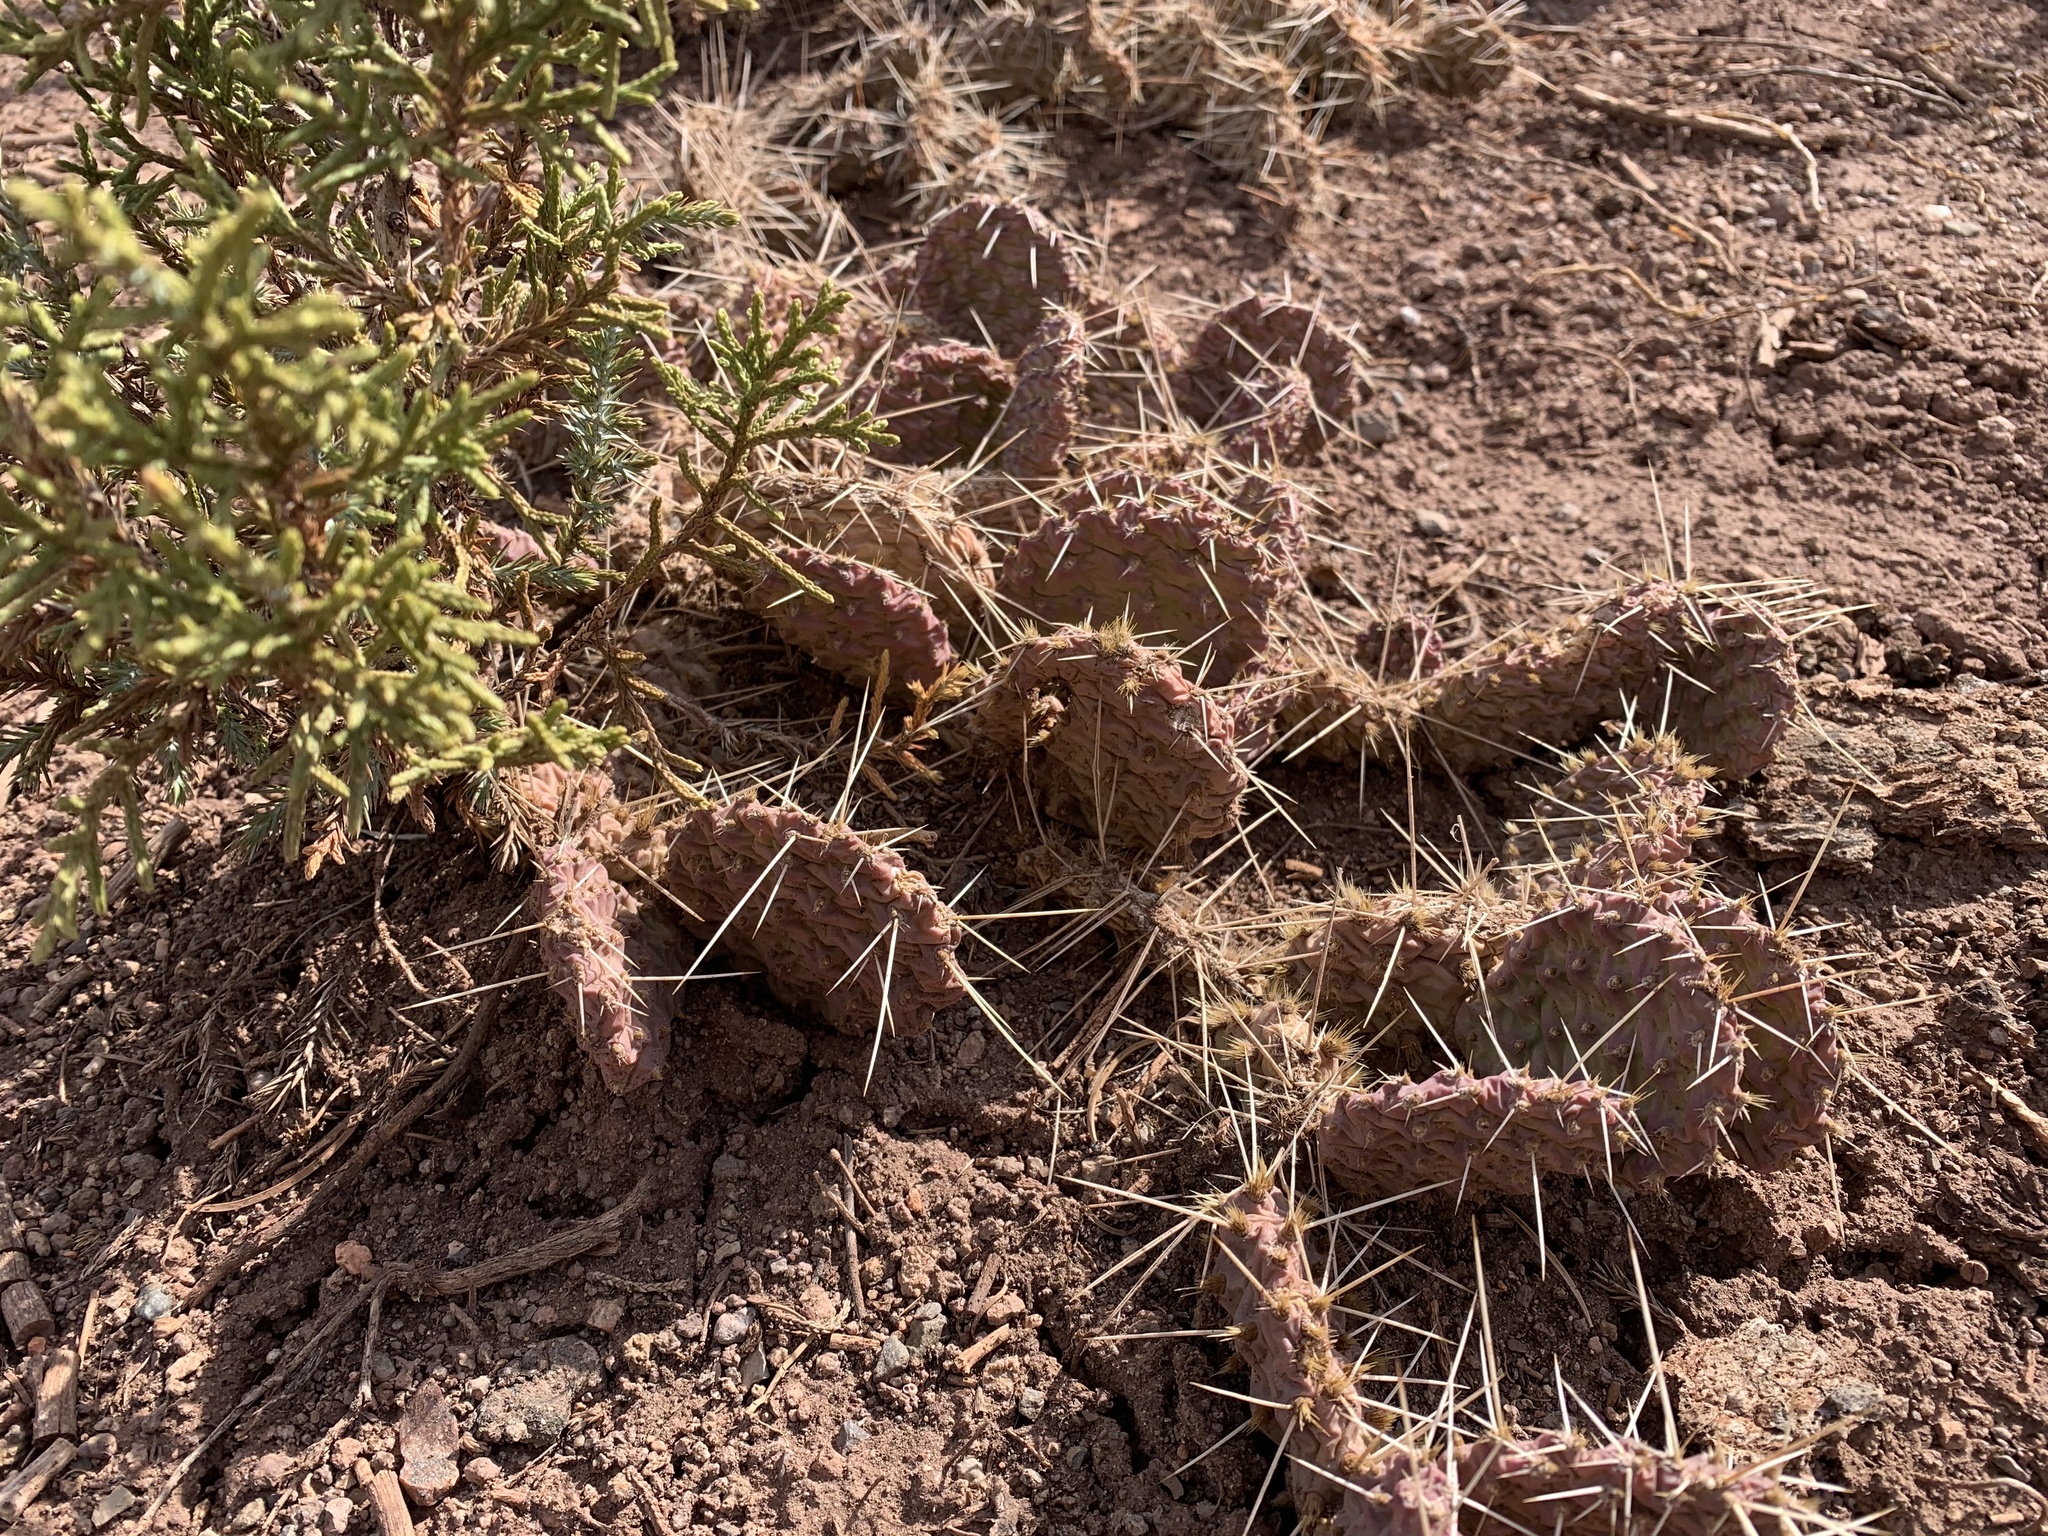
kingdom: Plantae
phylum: Tracheophyta
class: Magnoliopsida
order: Caryophyllales
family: Cactaceae
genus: Opuntia
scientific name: Opuntia polyacantha
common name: Plains prickly-pear
